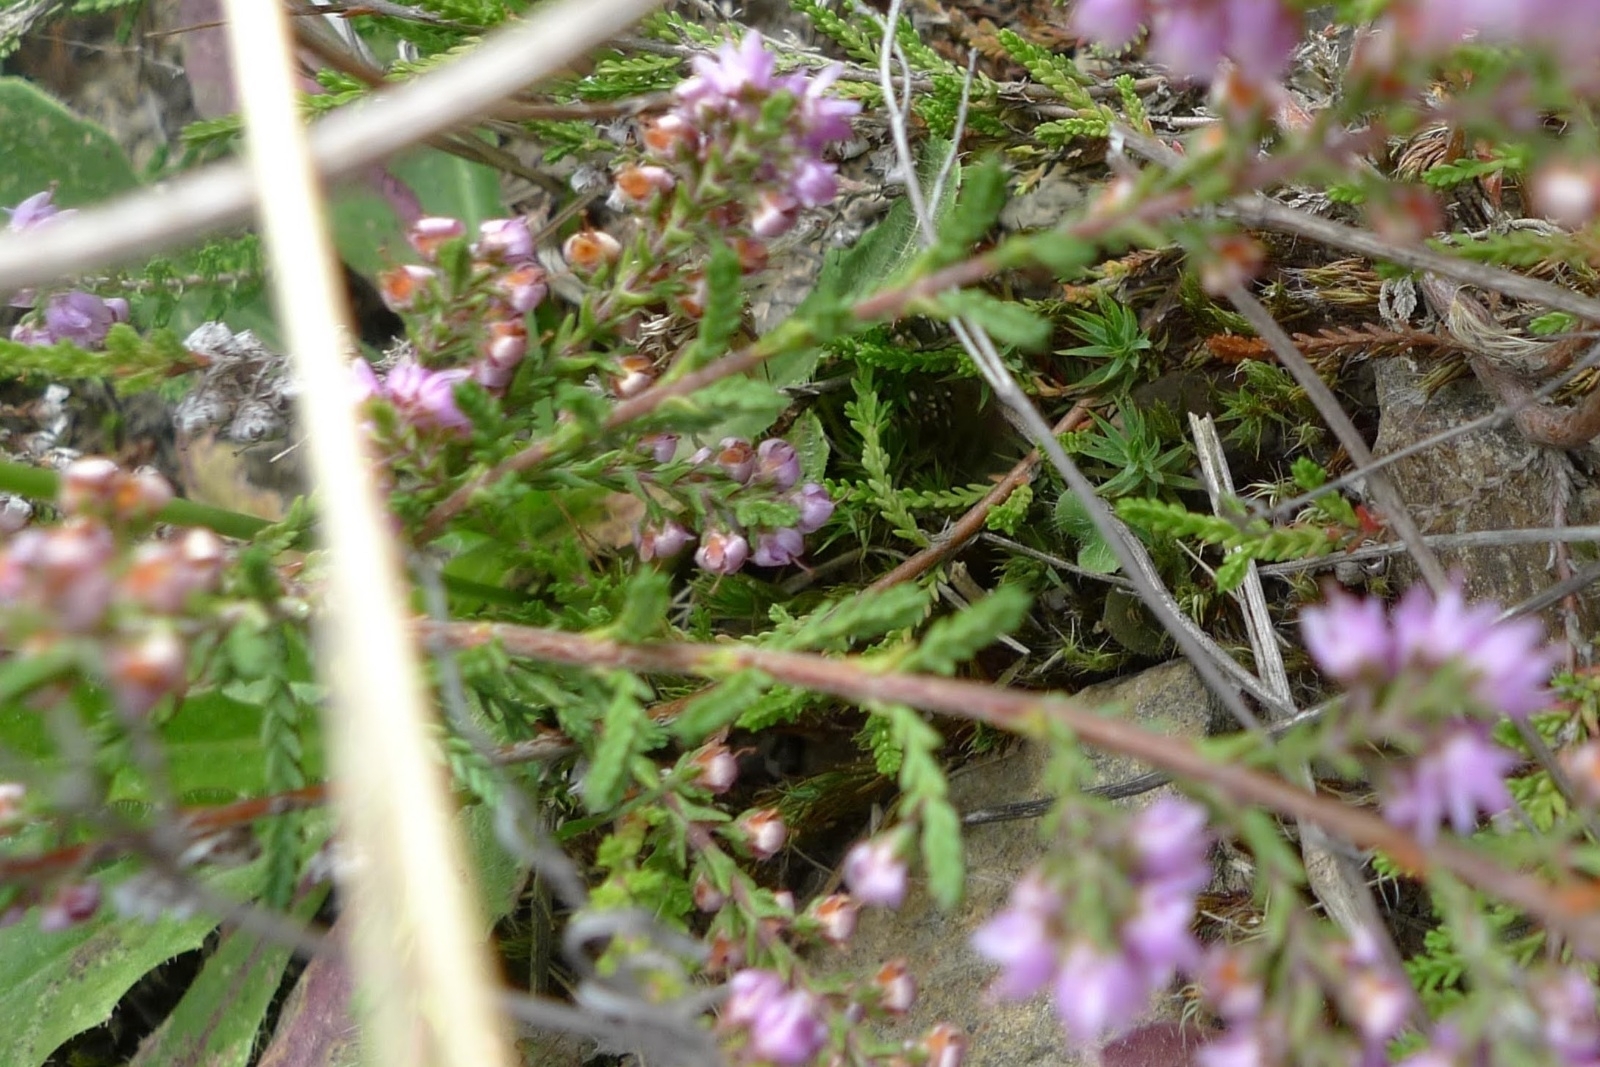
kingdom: Plantae
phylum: Tracheophyta
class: Magnoliopsida
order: Ericales
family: Ericaceae
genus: Calluna
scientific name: Calluna vulgaris
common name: Heather
